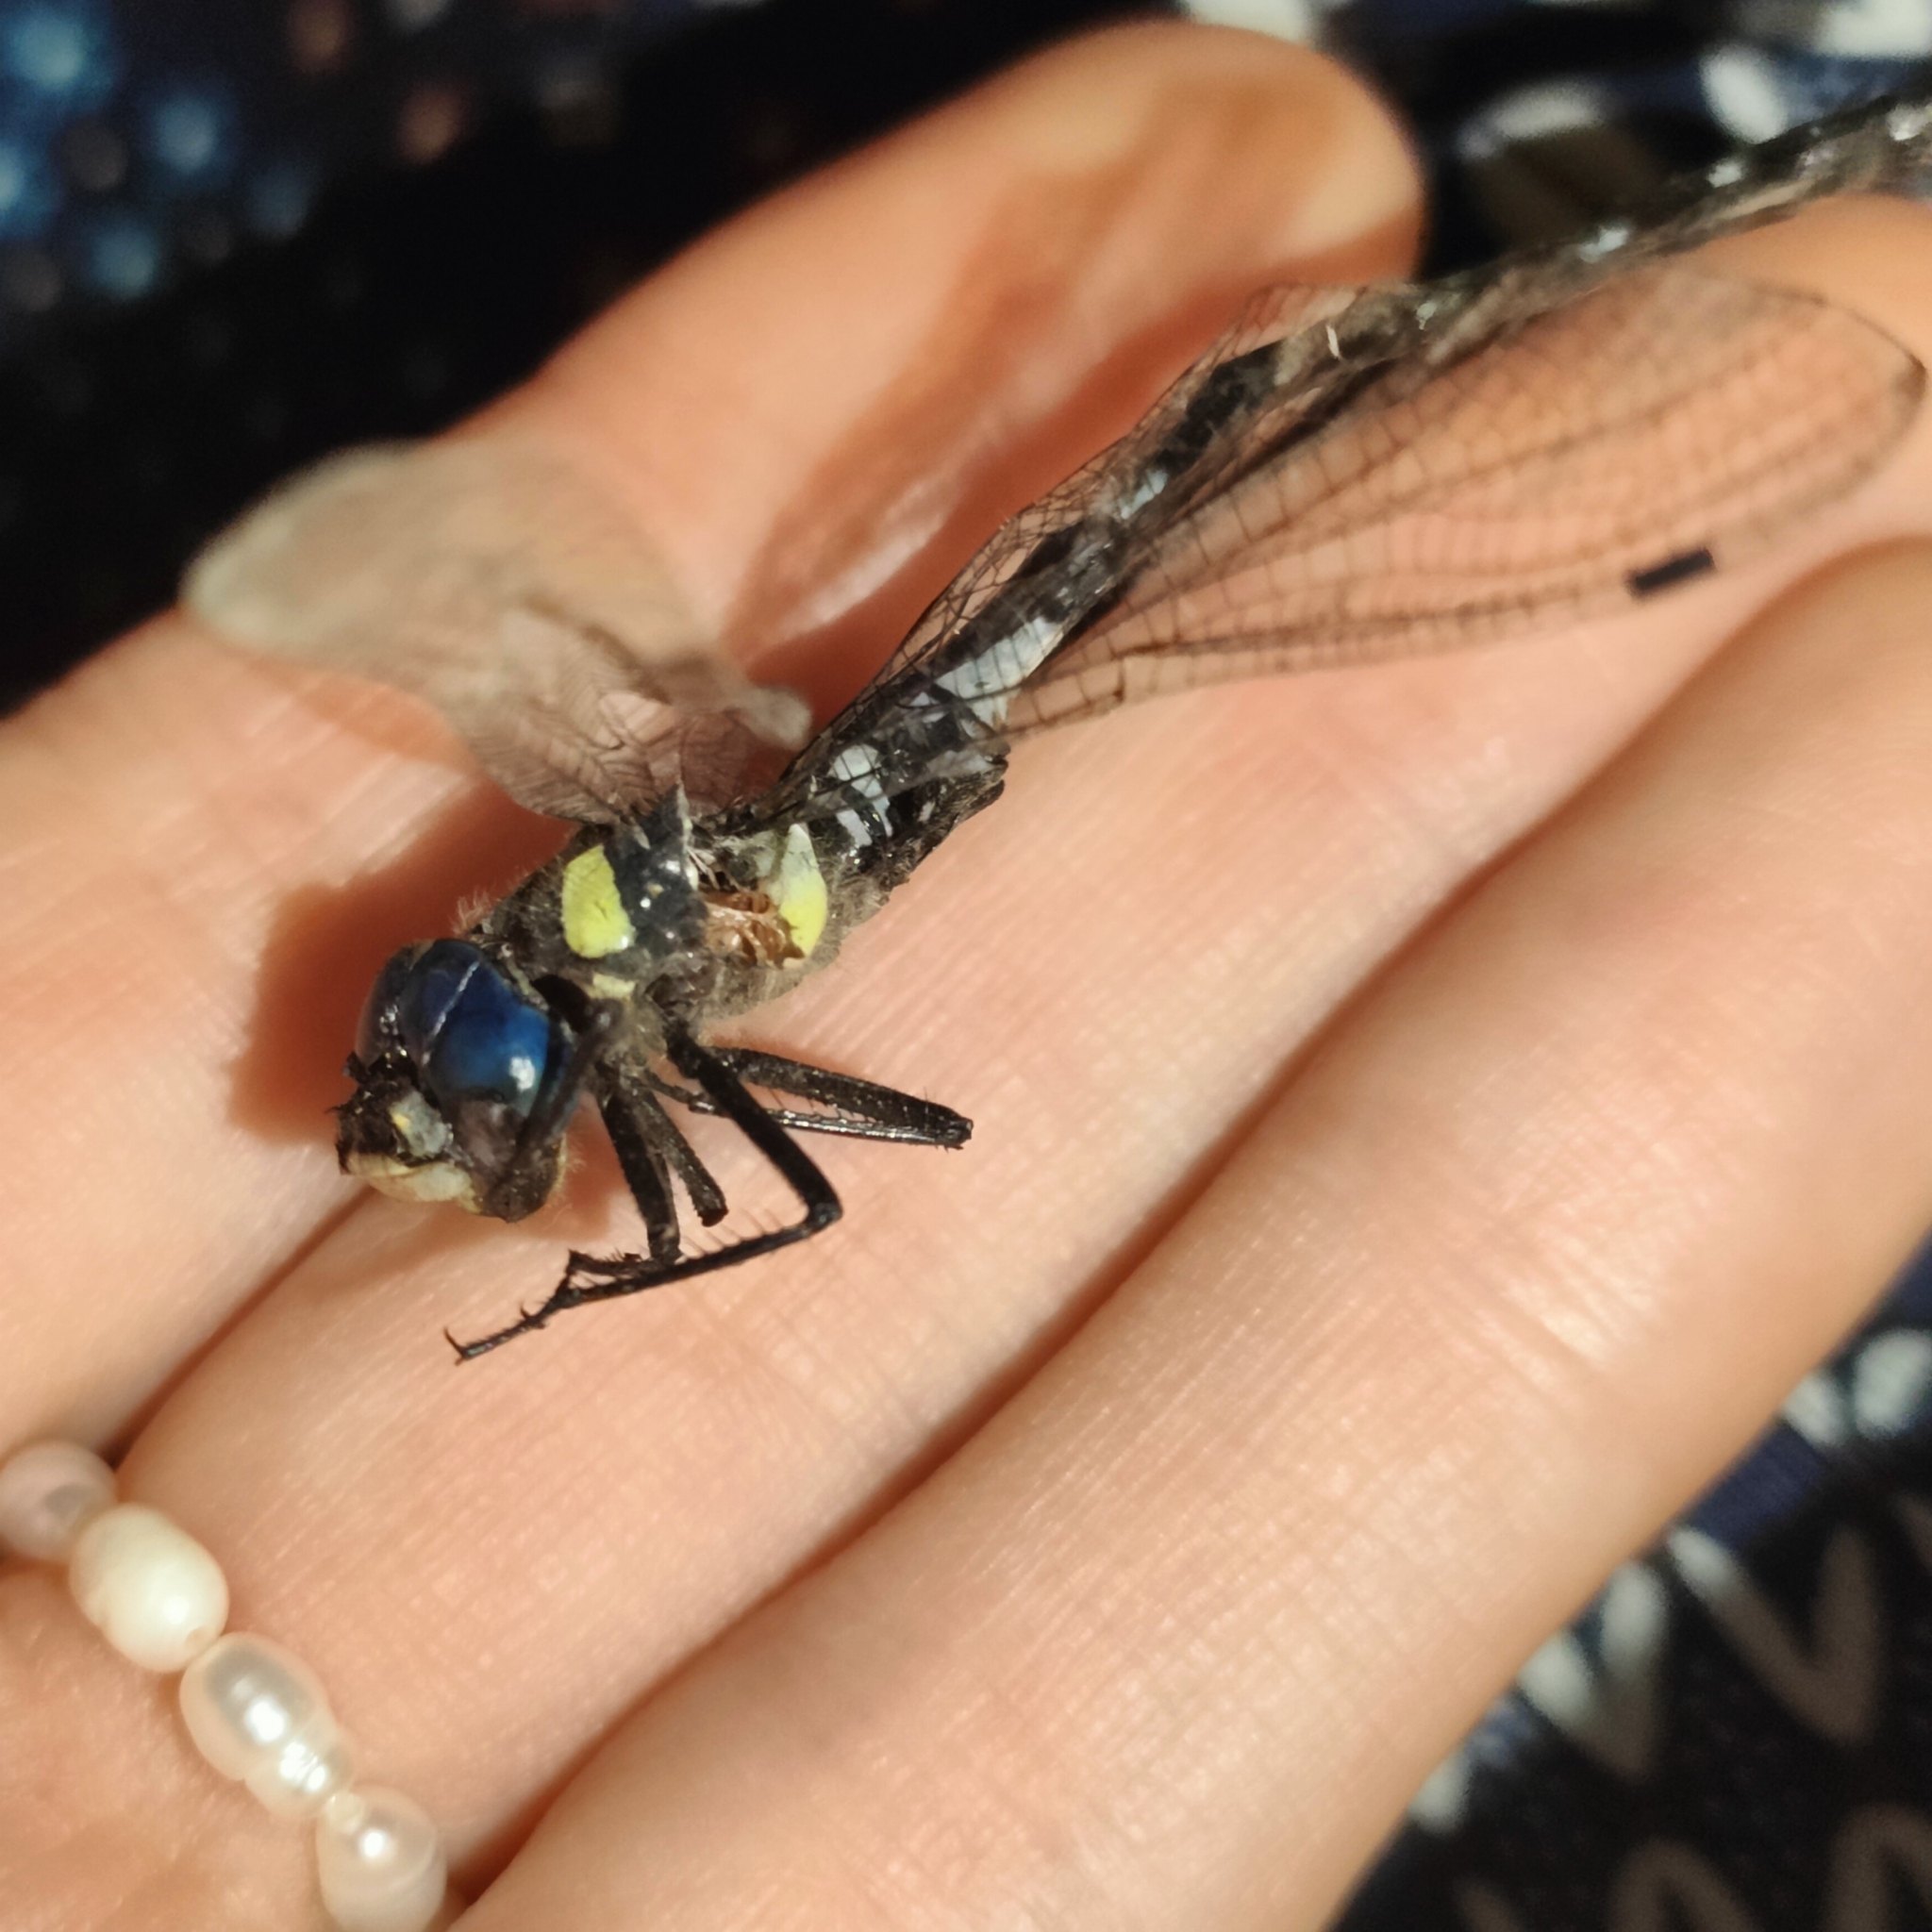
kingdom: Animalia
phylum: Arthropoda
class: Insecta
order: Odonata
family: Aeshnidae
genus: Caliaeschna
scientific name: Caliaeschna microstigma
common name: Eastern spectre
